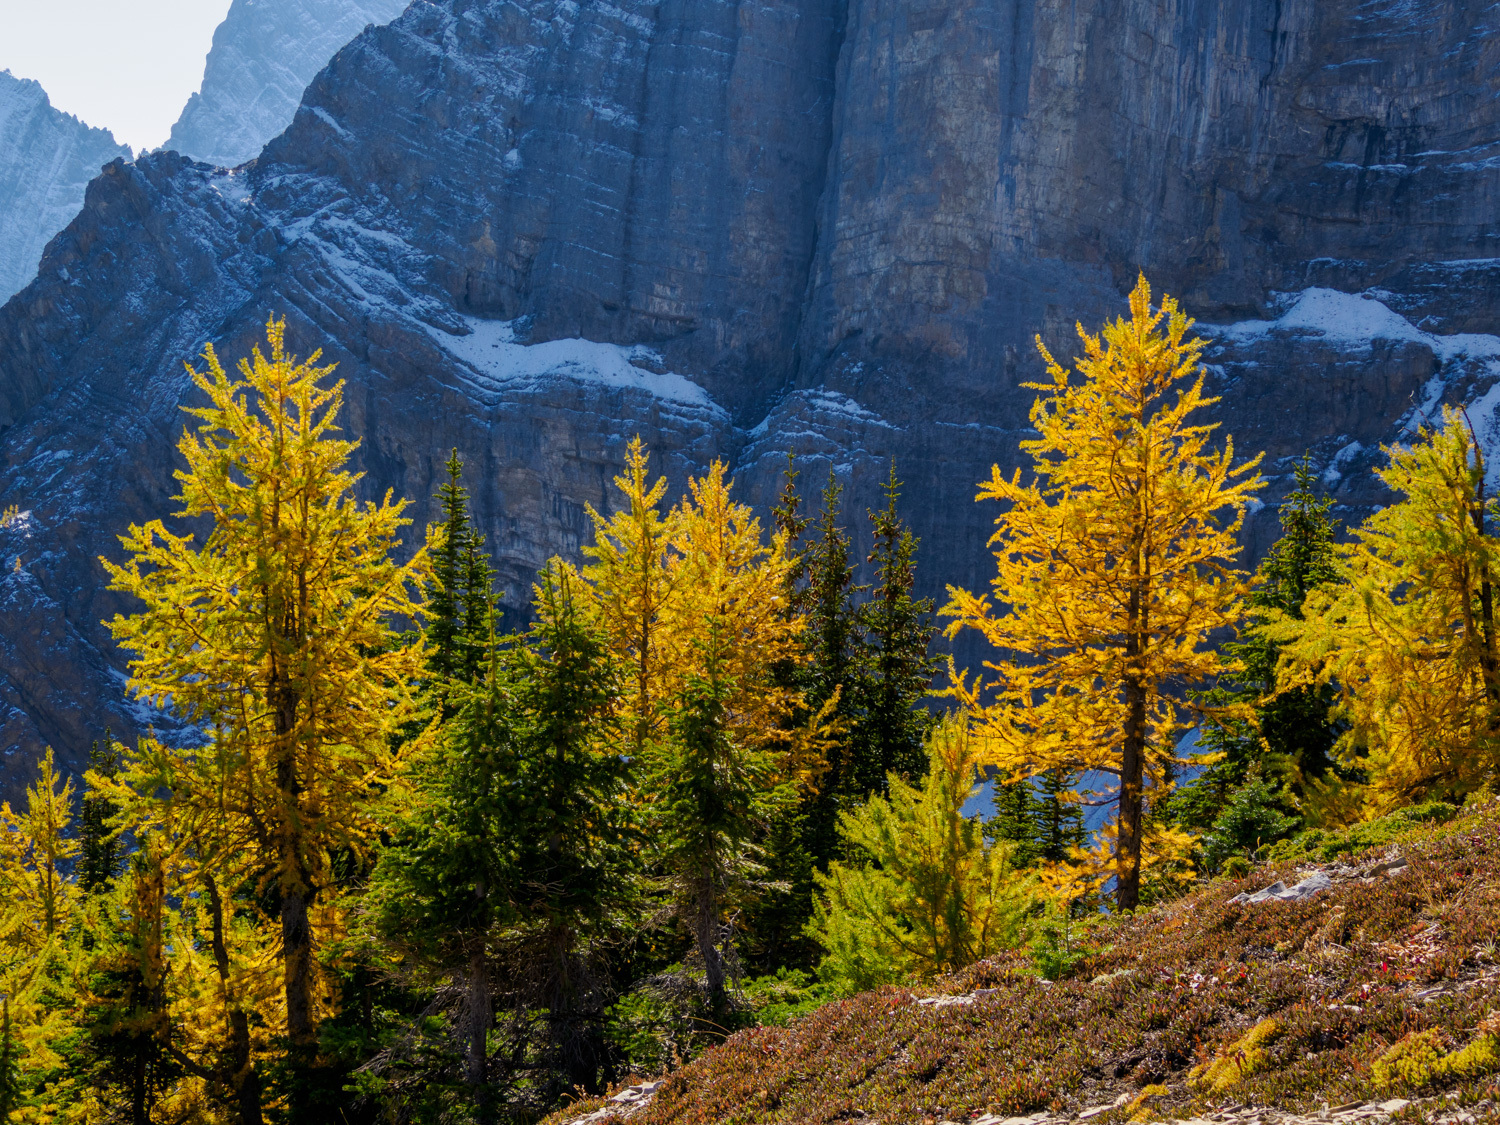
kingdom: Plantae
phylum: Tracheophyta
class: Pinopsida
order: Pinales
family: Pinaceae
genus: Larix
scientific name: Larix lyallii
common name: Alpine larch
